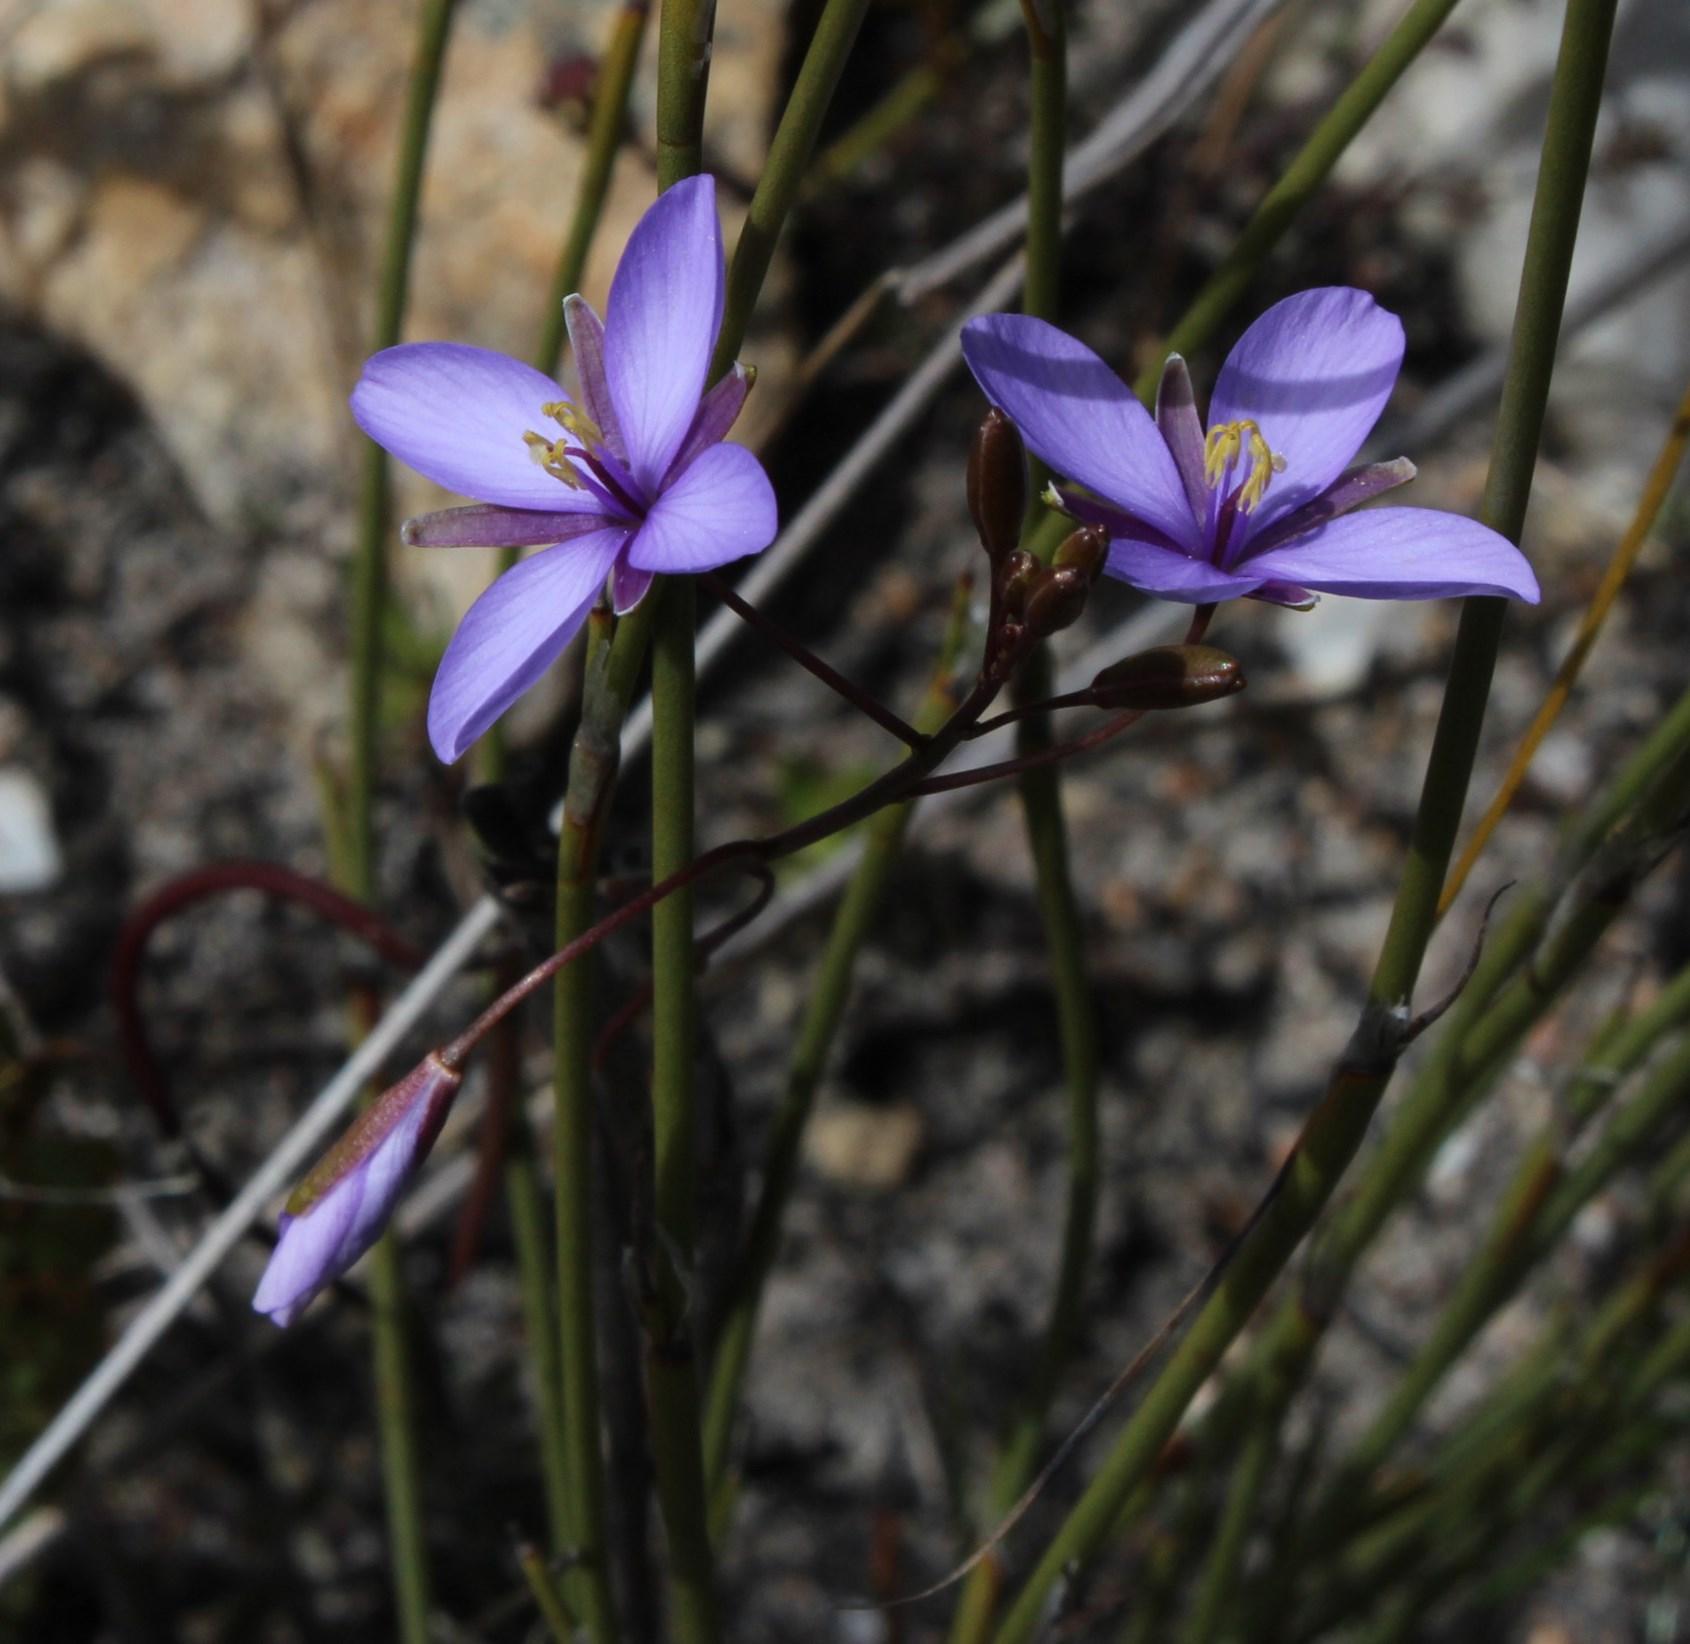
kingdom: Plantae
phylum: Tracheophyta
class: Magnoliopsida
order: Brassicales
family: Brassicaceae
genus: Heliophila
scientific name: Heliophila subulata
